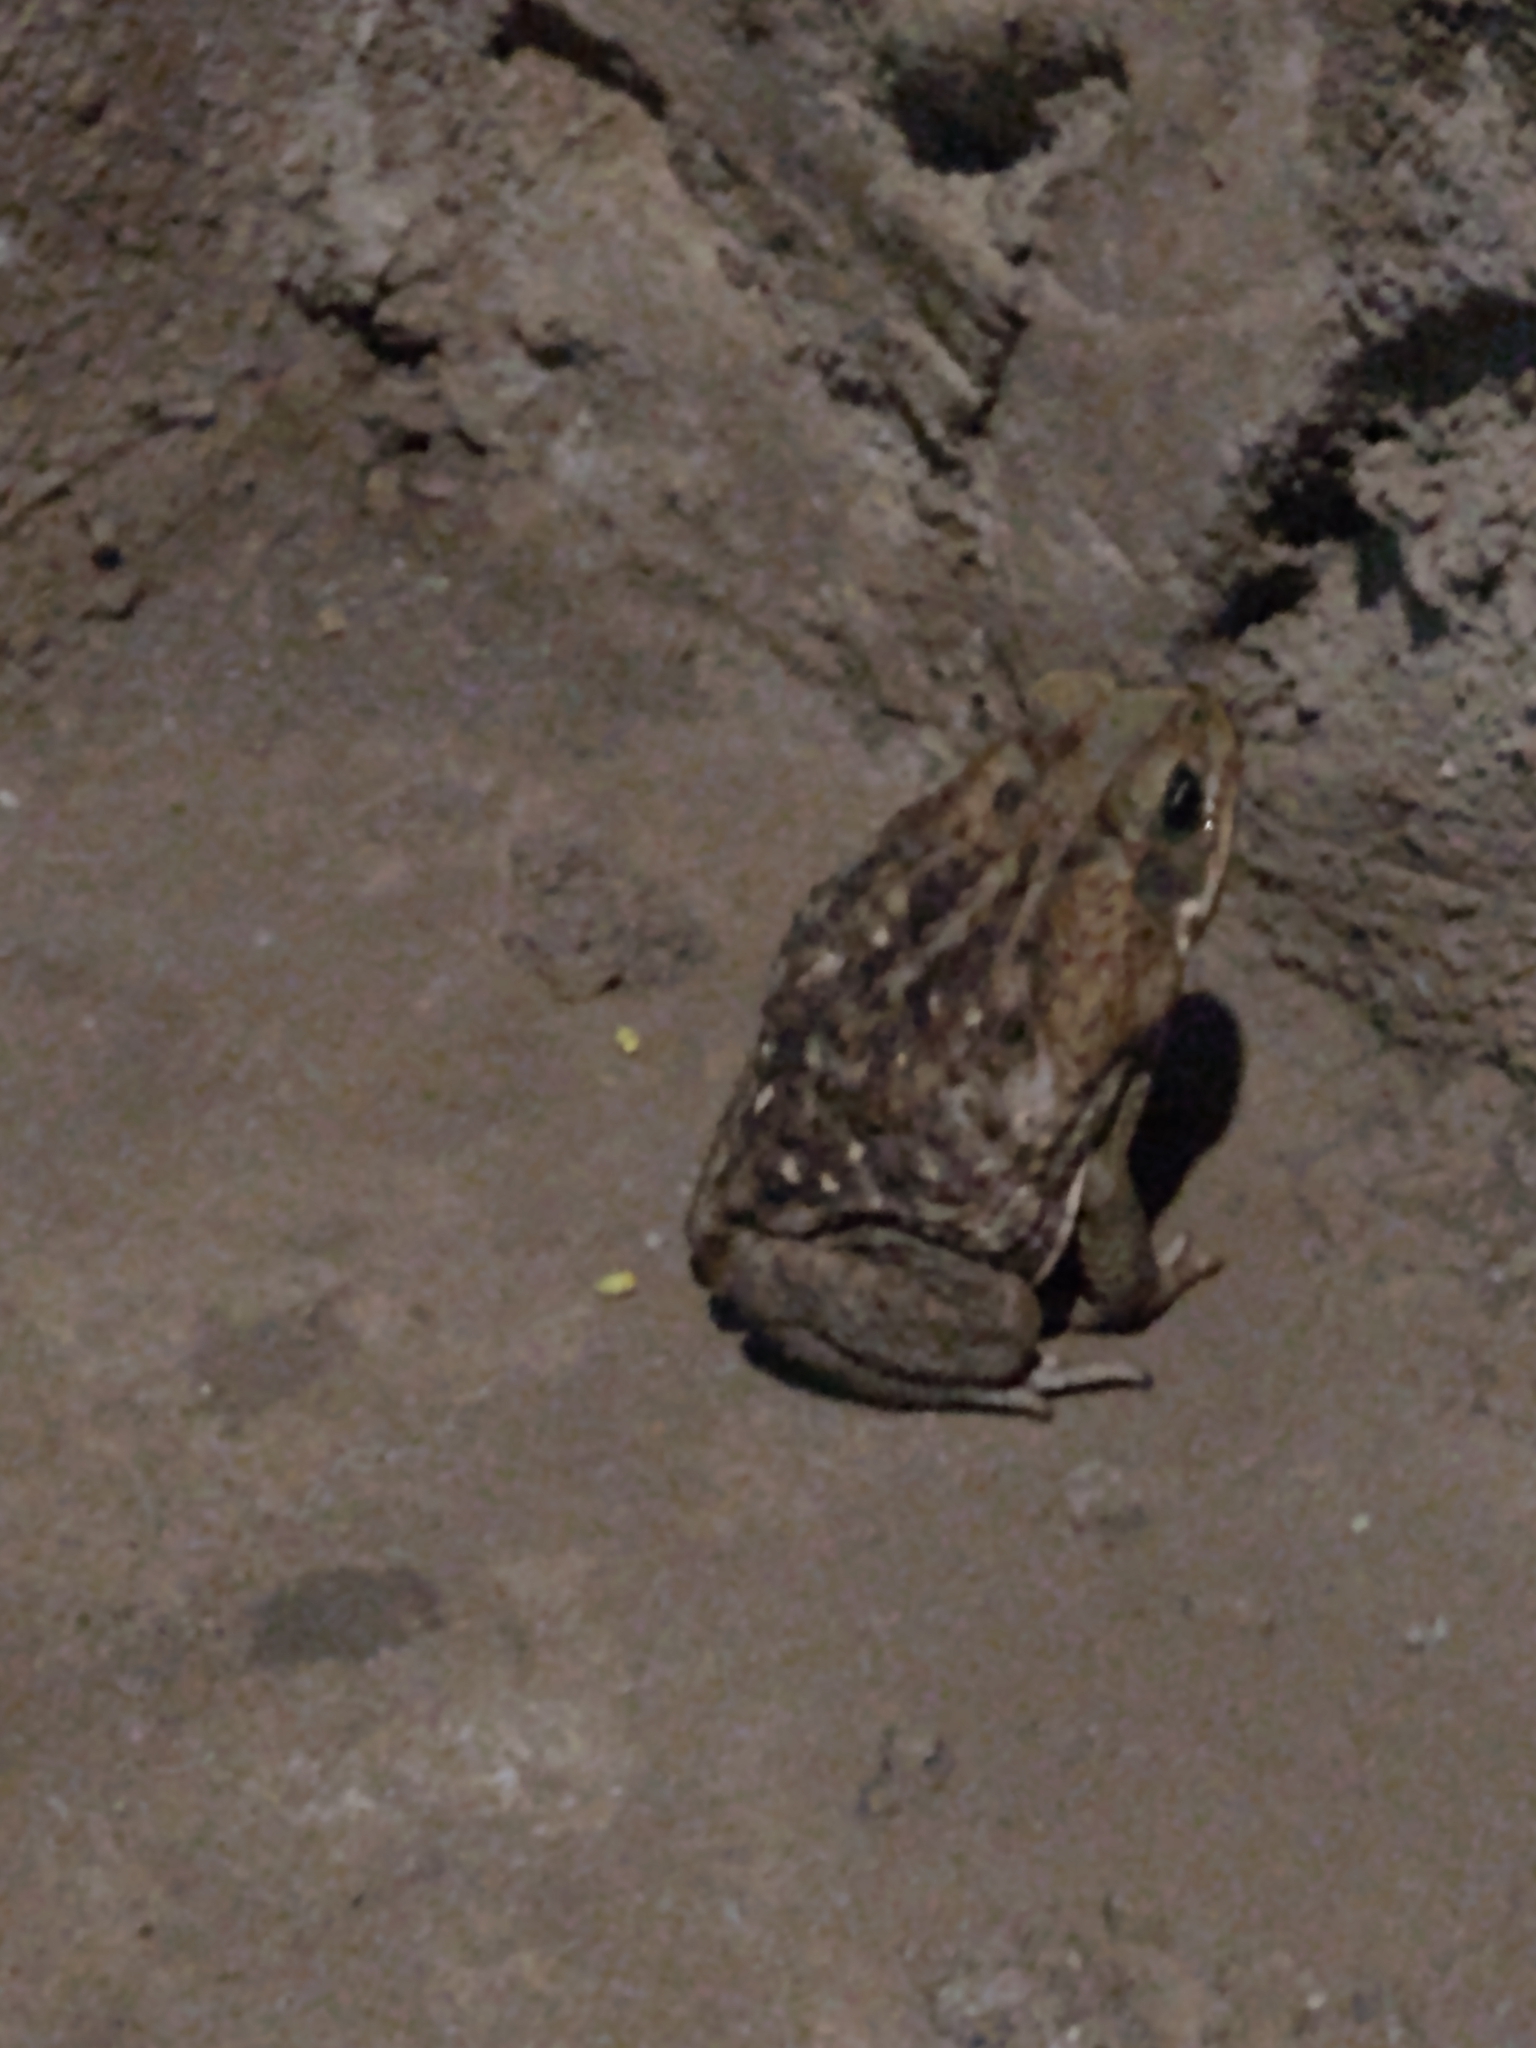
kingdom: Animalia
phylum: Chordata
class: Amphibia
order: Anura
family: Bufonidae
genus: Rhinella
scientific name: Rhinella horribilis
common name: Mesoamerican cane toad
